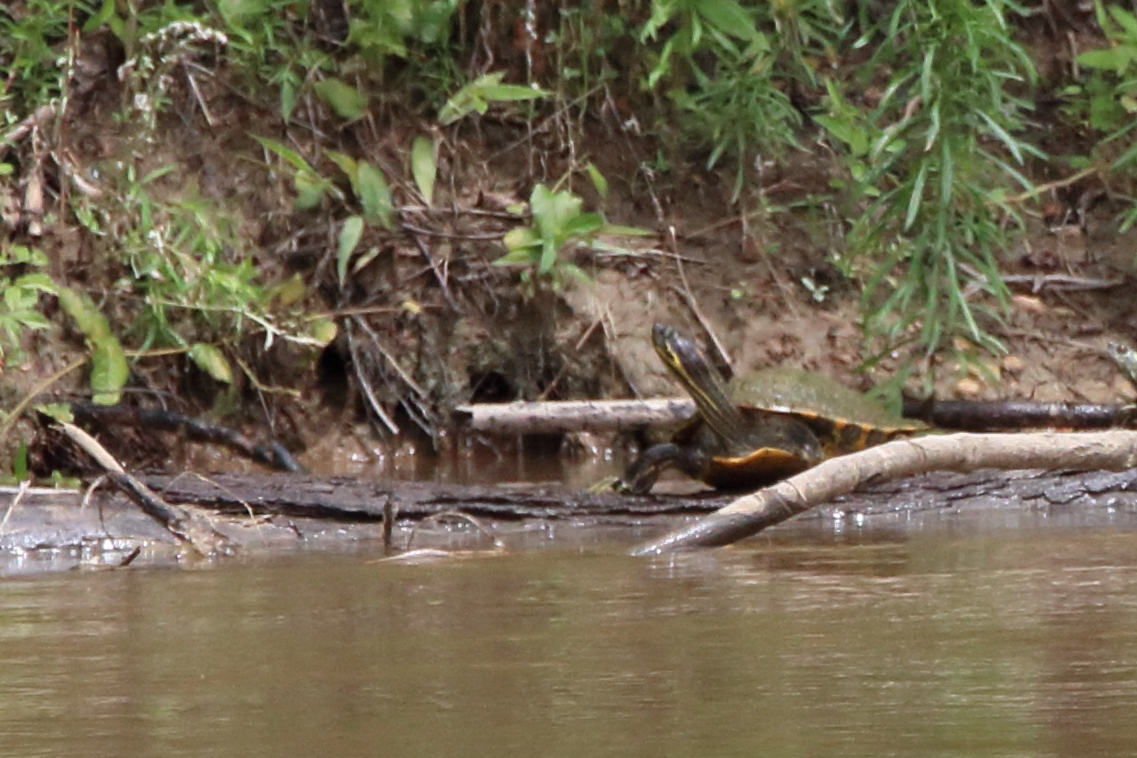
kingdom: Animalia
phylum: Chordata
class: Testudines
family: Emydidae
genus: Pseudemys
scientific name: Pseudemys concinna
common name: Eastern river cooter
